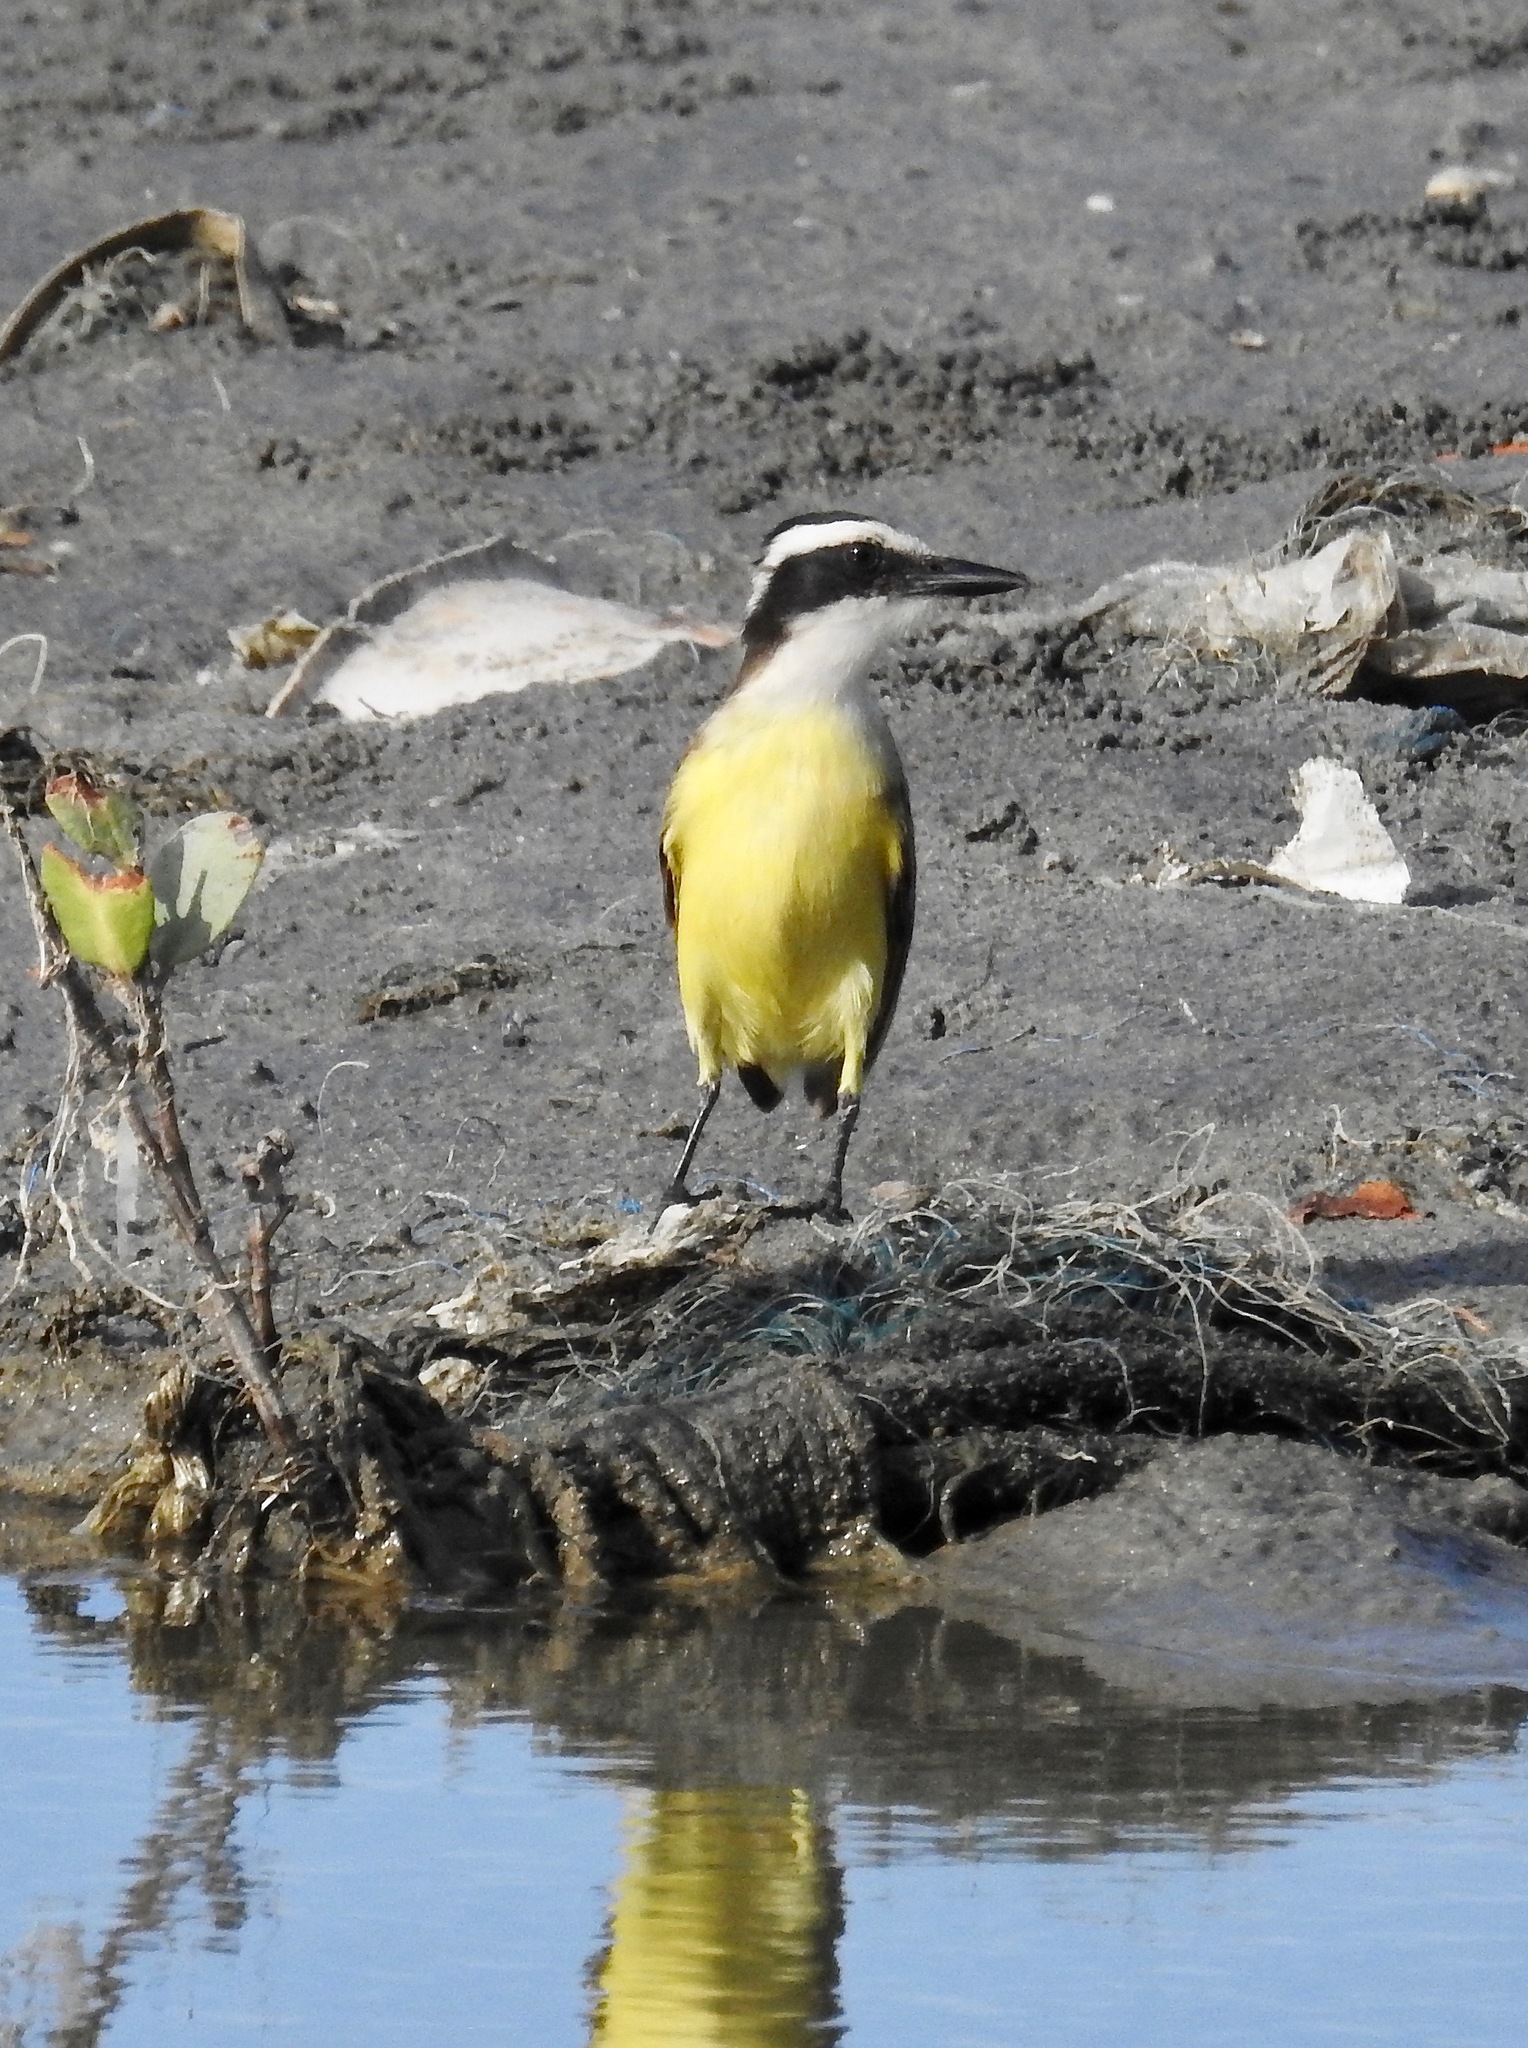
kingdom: Animalia
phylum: Chordata
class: Aves
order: Passeriformes
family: Tyrannidae
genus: Pitangus
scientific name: Pitangus sulphuratus
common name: Great kiskadee
